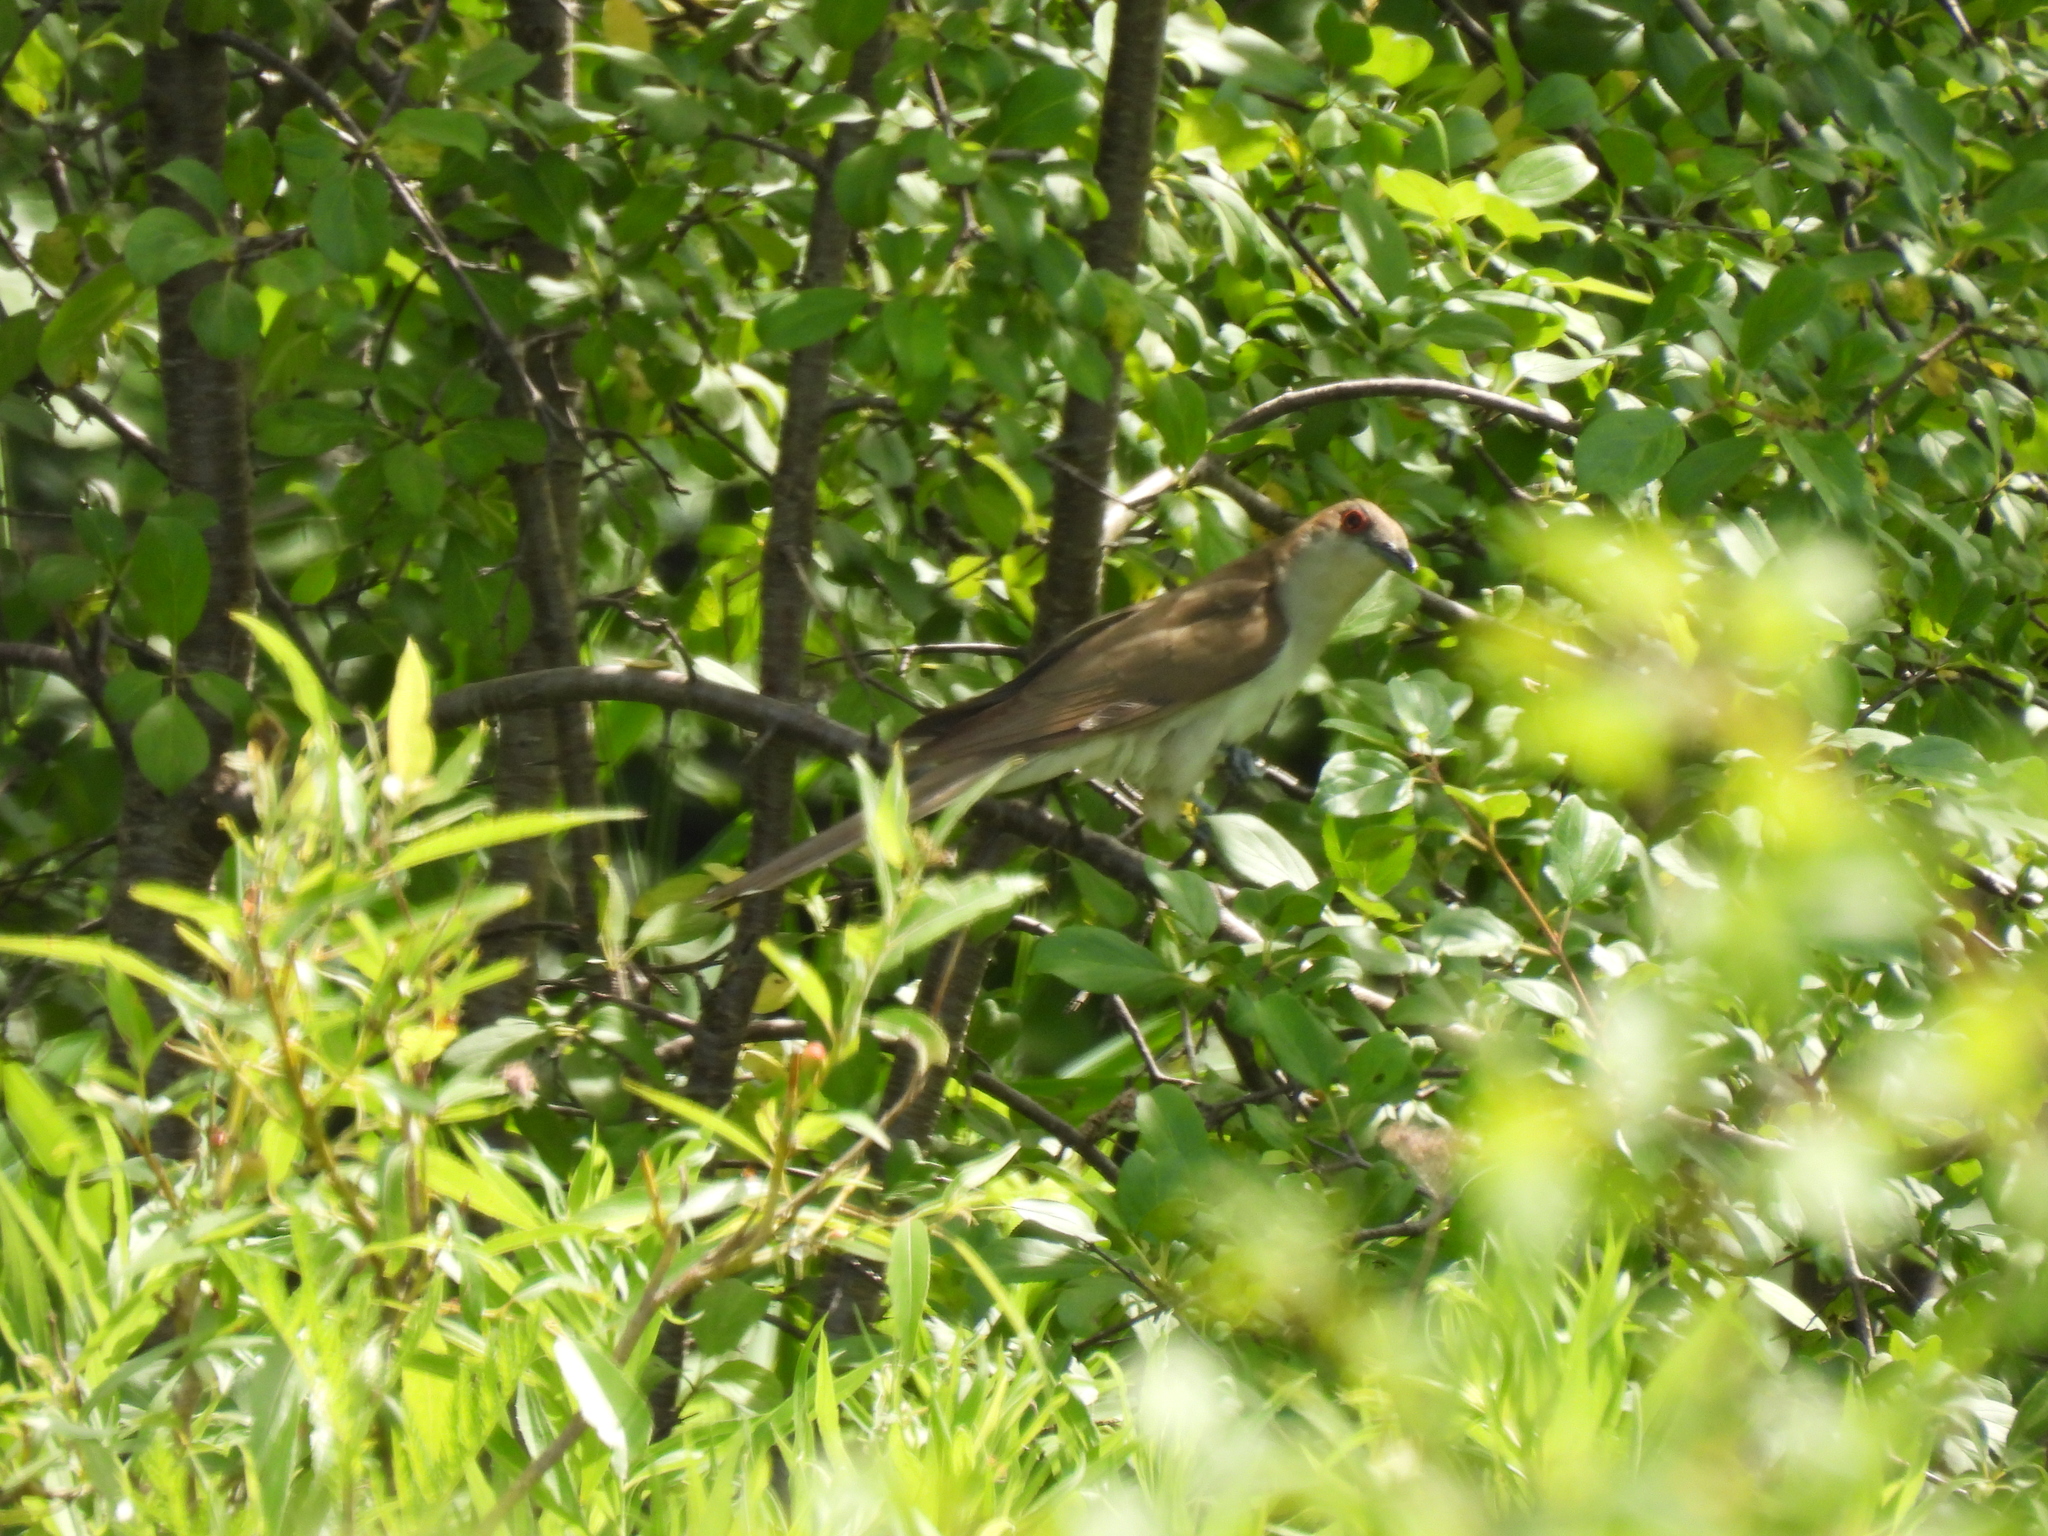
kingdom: Animalia
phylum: Chordata
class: Aves
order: Cuculiformes
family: Cuculidae
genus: Coccyzus
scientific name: Coccyzus erythropthalmus
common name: Black-billed cuckoo
